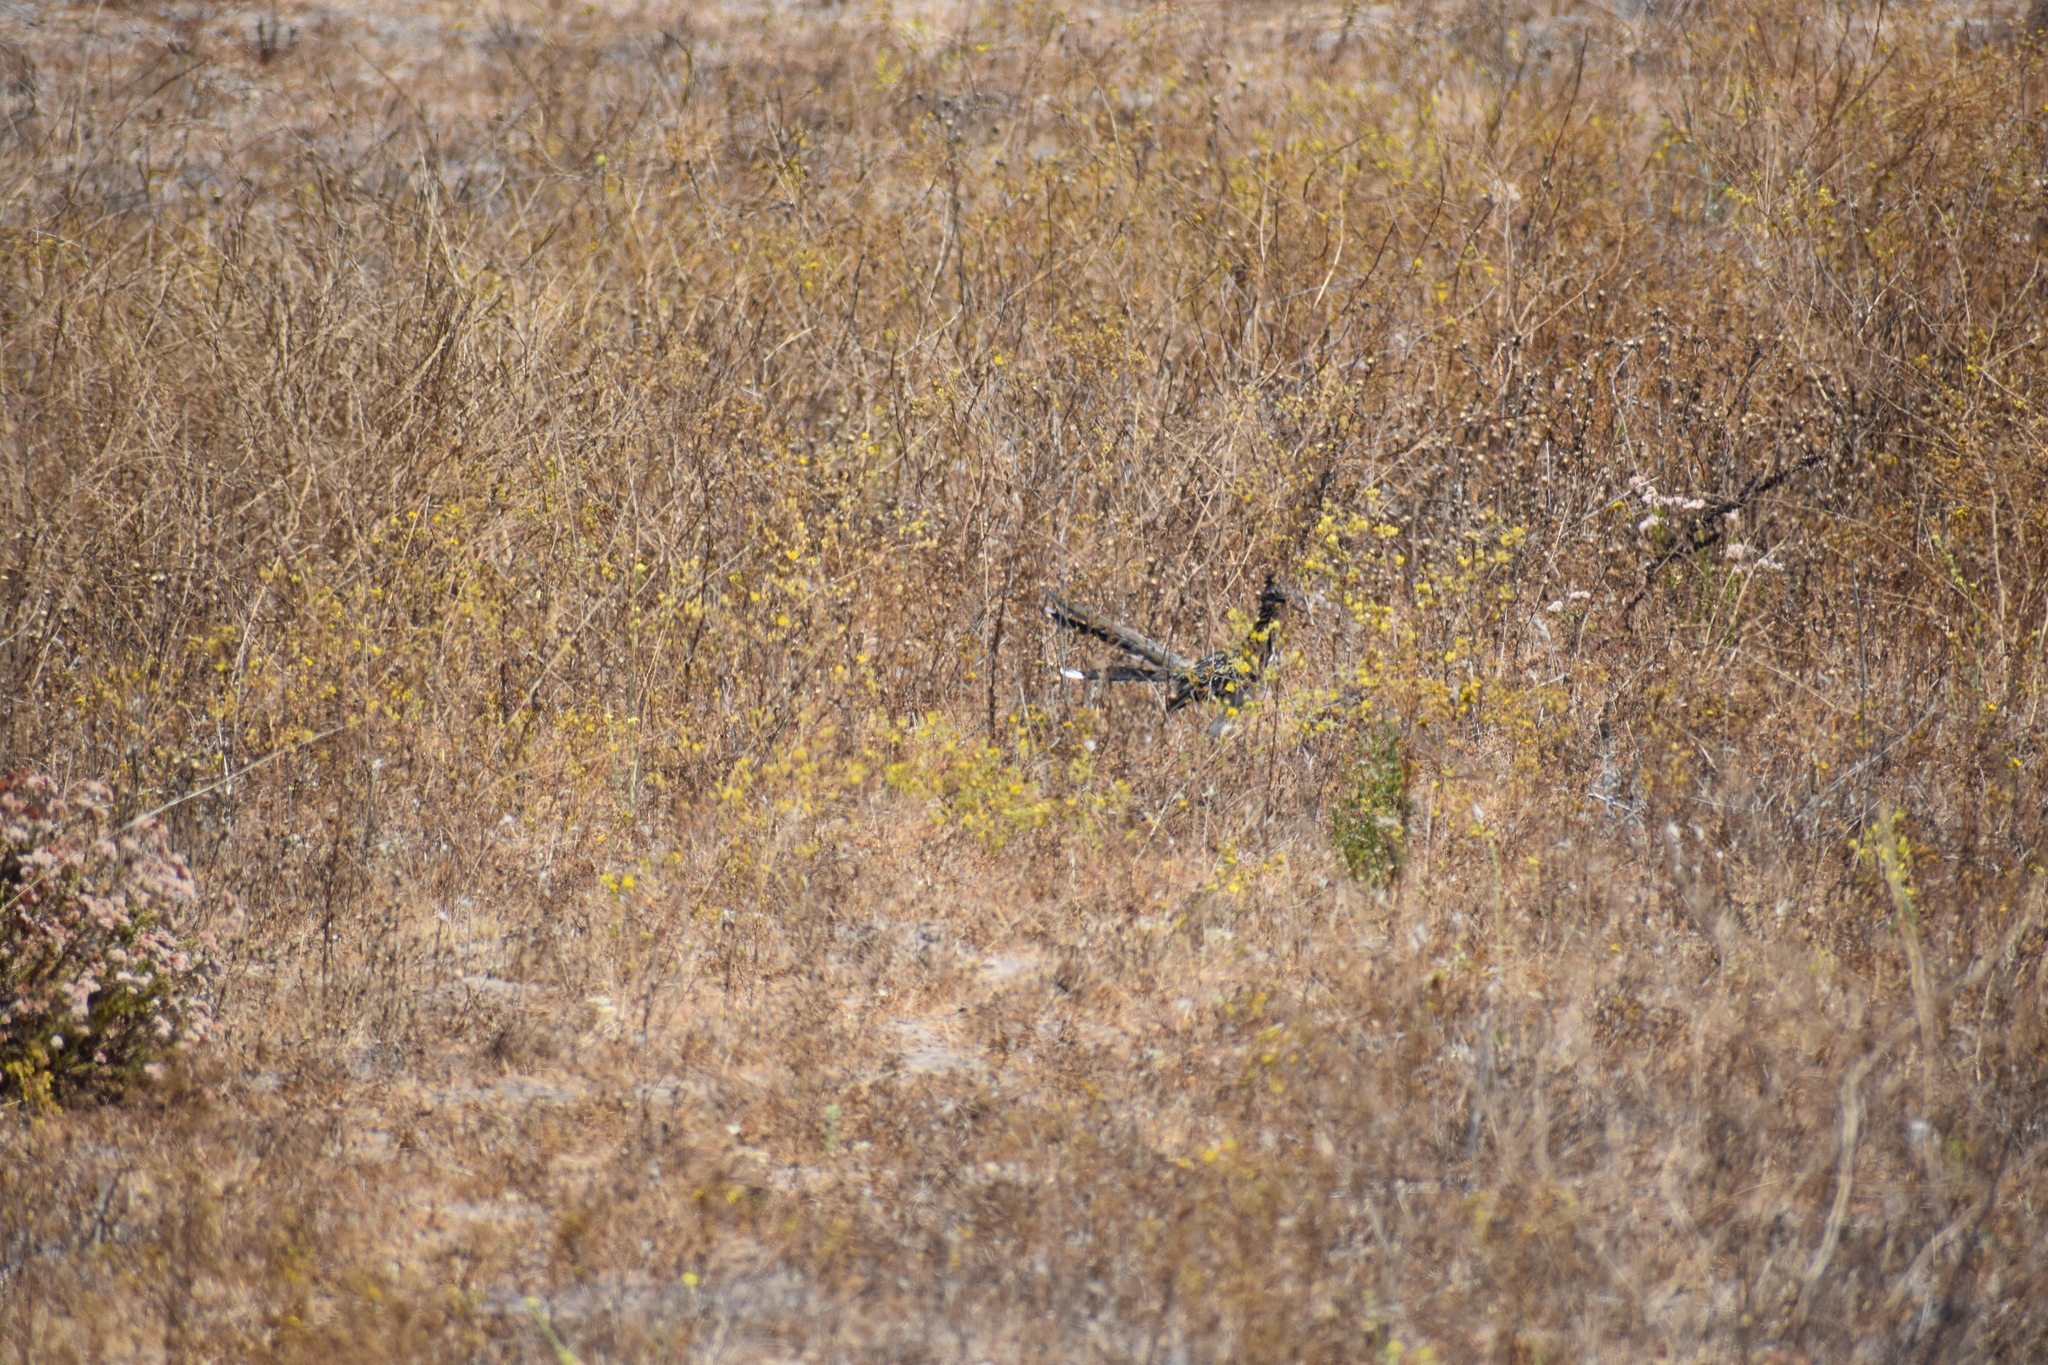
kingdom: Animalia
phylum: Chordata
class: Aves
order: Cuculiformes
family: Cuculidae
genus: Geococcyx
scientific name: Geococcyx californianus
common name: Greater roadrunner
